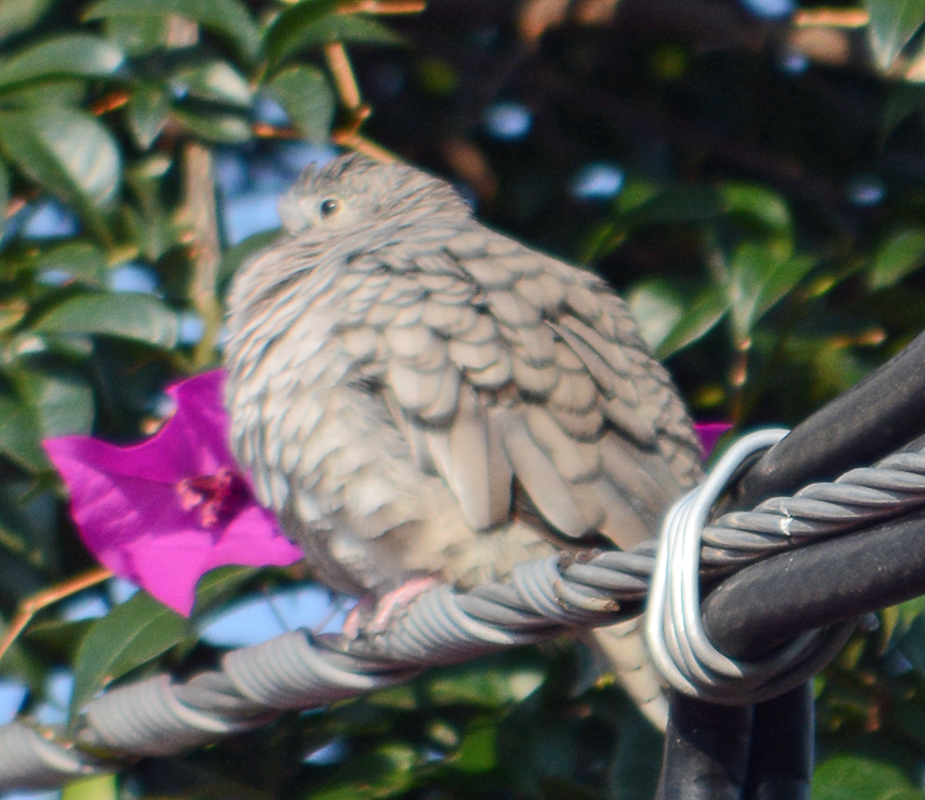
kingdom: Animalia
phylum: Chordata
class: Aves
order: Columbiformes
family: Columbidae
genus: Columbina
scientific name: Columbina inca
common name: Inca dove
